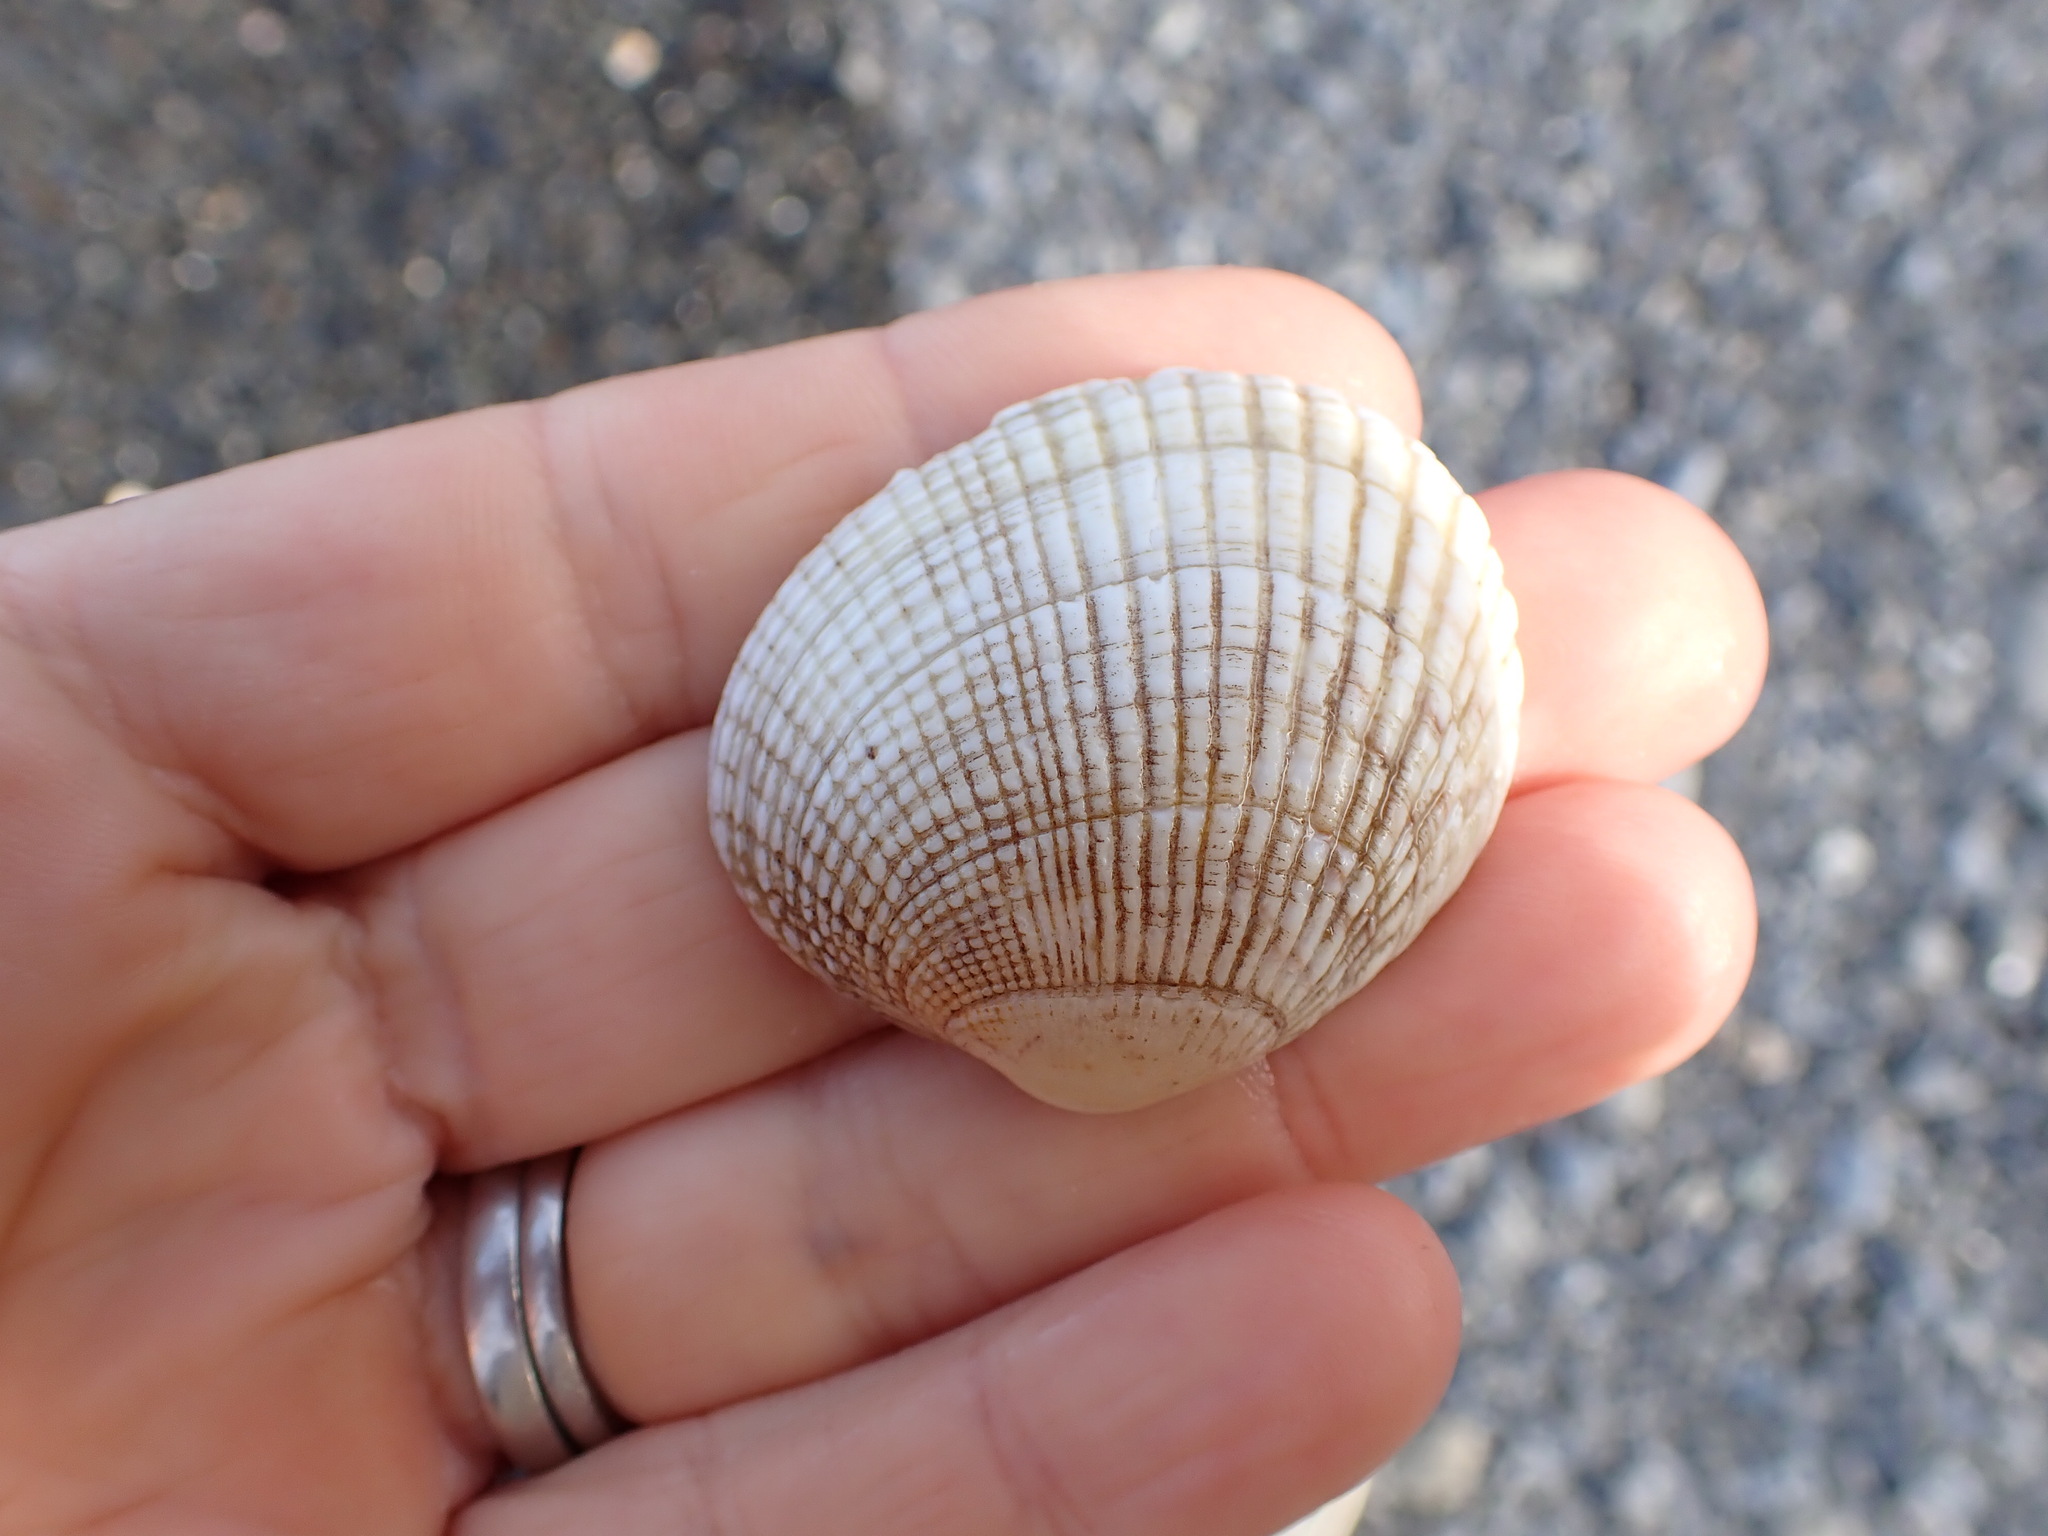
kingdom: Animalia
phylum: Mollusca
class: Bivalvia
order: Venerida
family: Veneridae
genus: Leukoma
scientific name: Leukoma crassicosta
